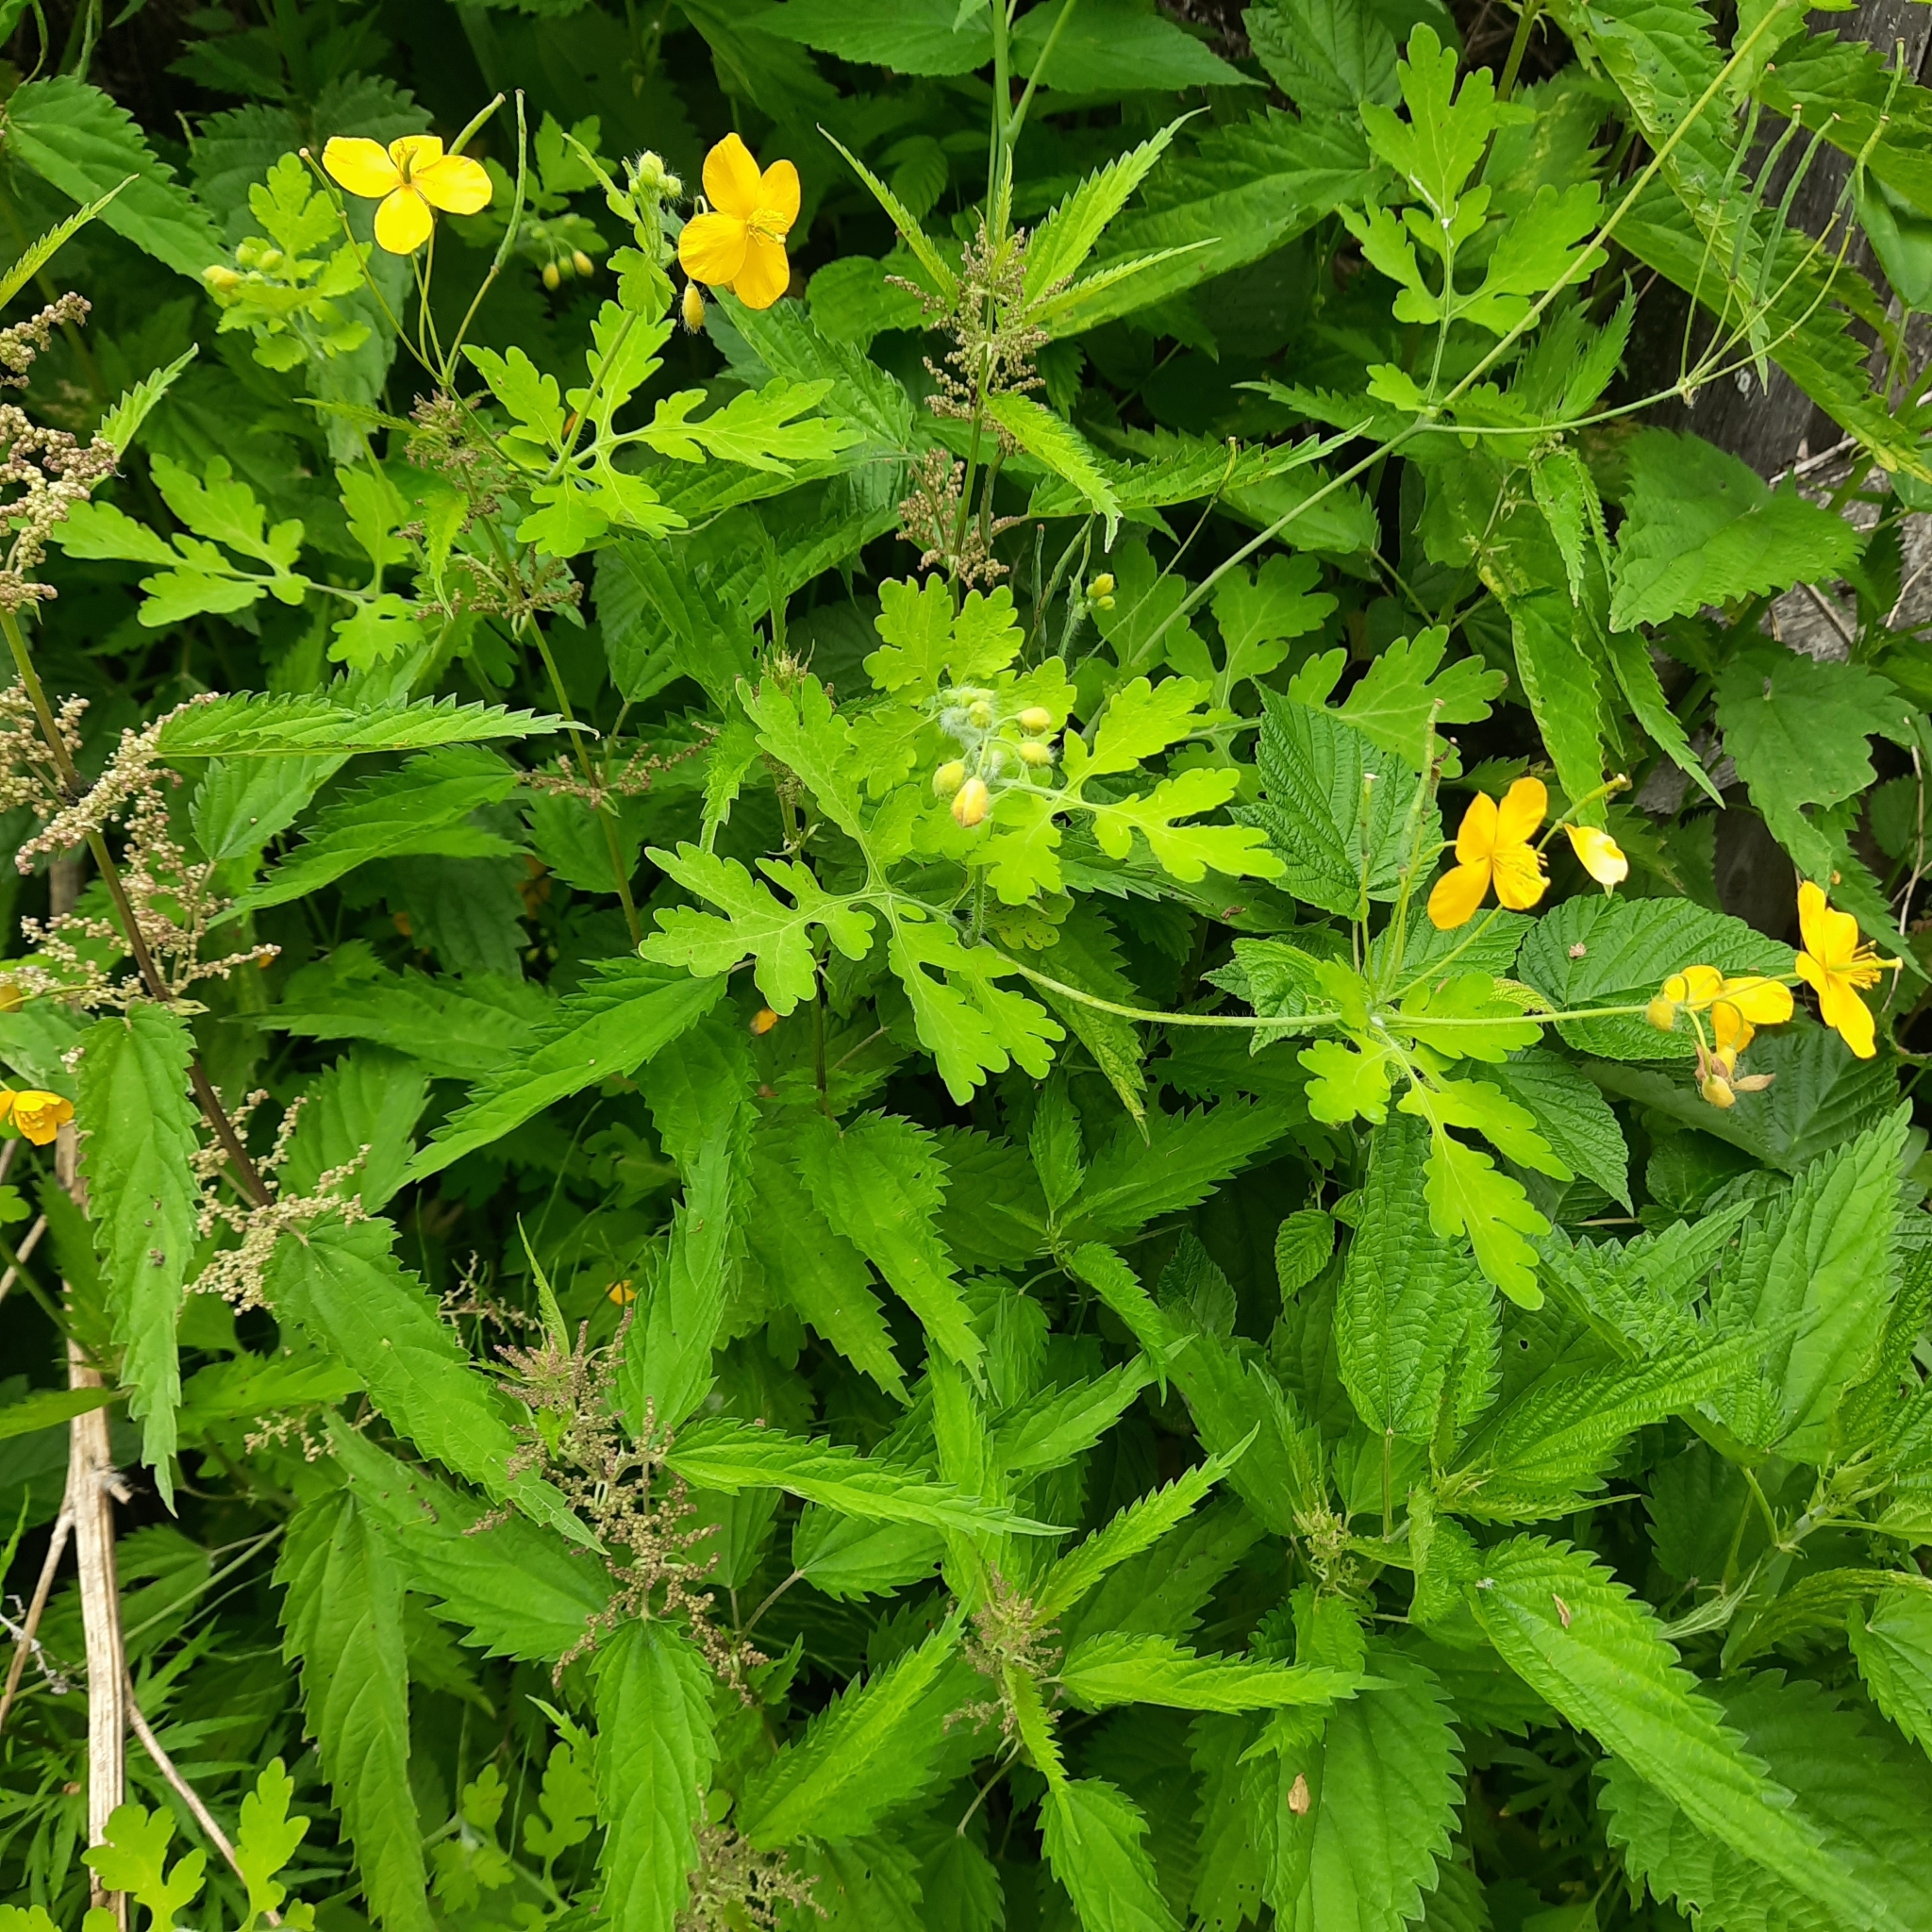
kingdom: Plantae
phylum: Tracheophyta
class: Magnoliopsida
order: Ranunculales
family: Papaveraceae
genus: Chelidonium
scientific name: Chelidonium majus
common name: Greater celandine
